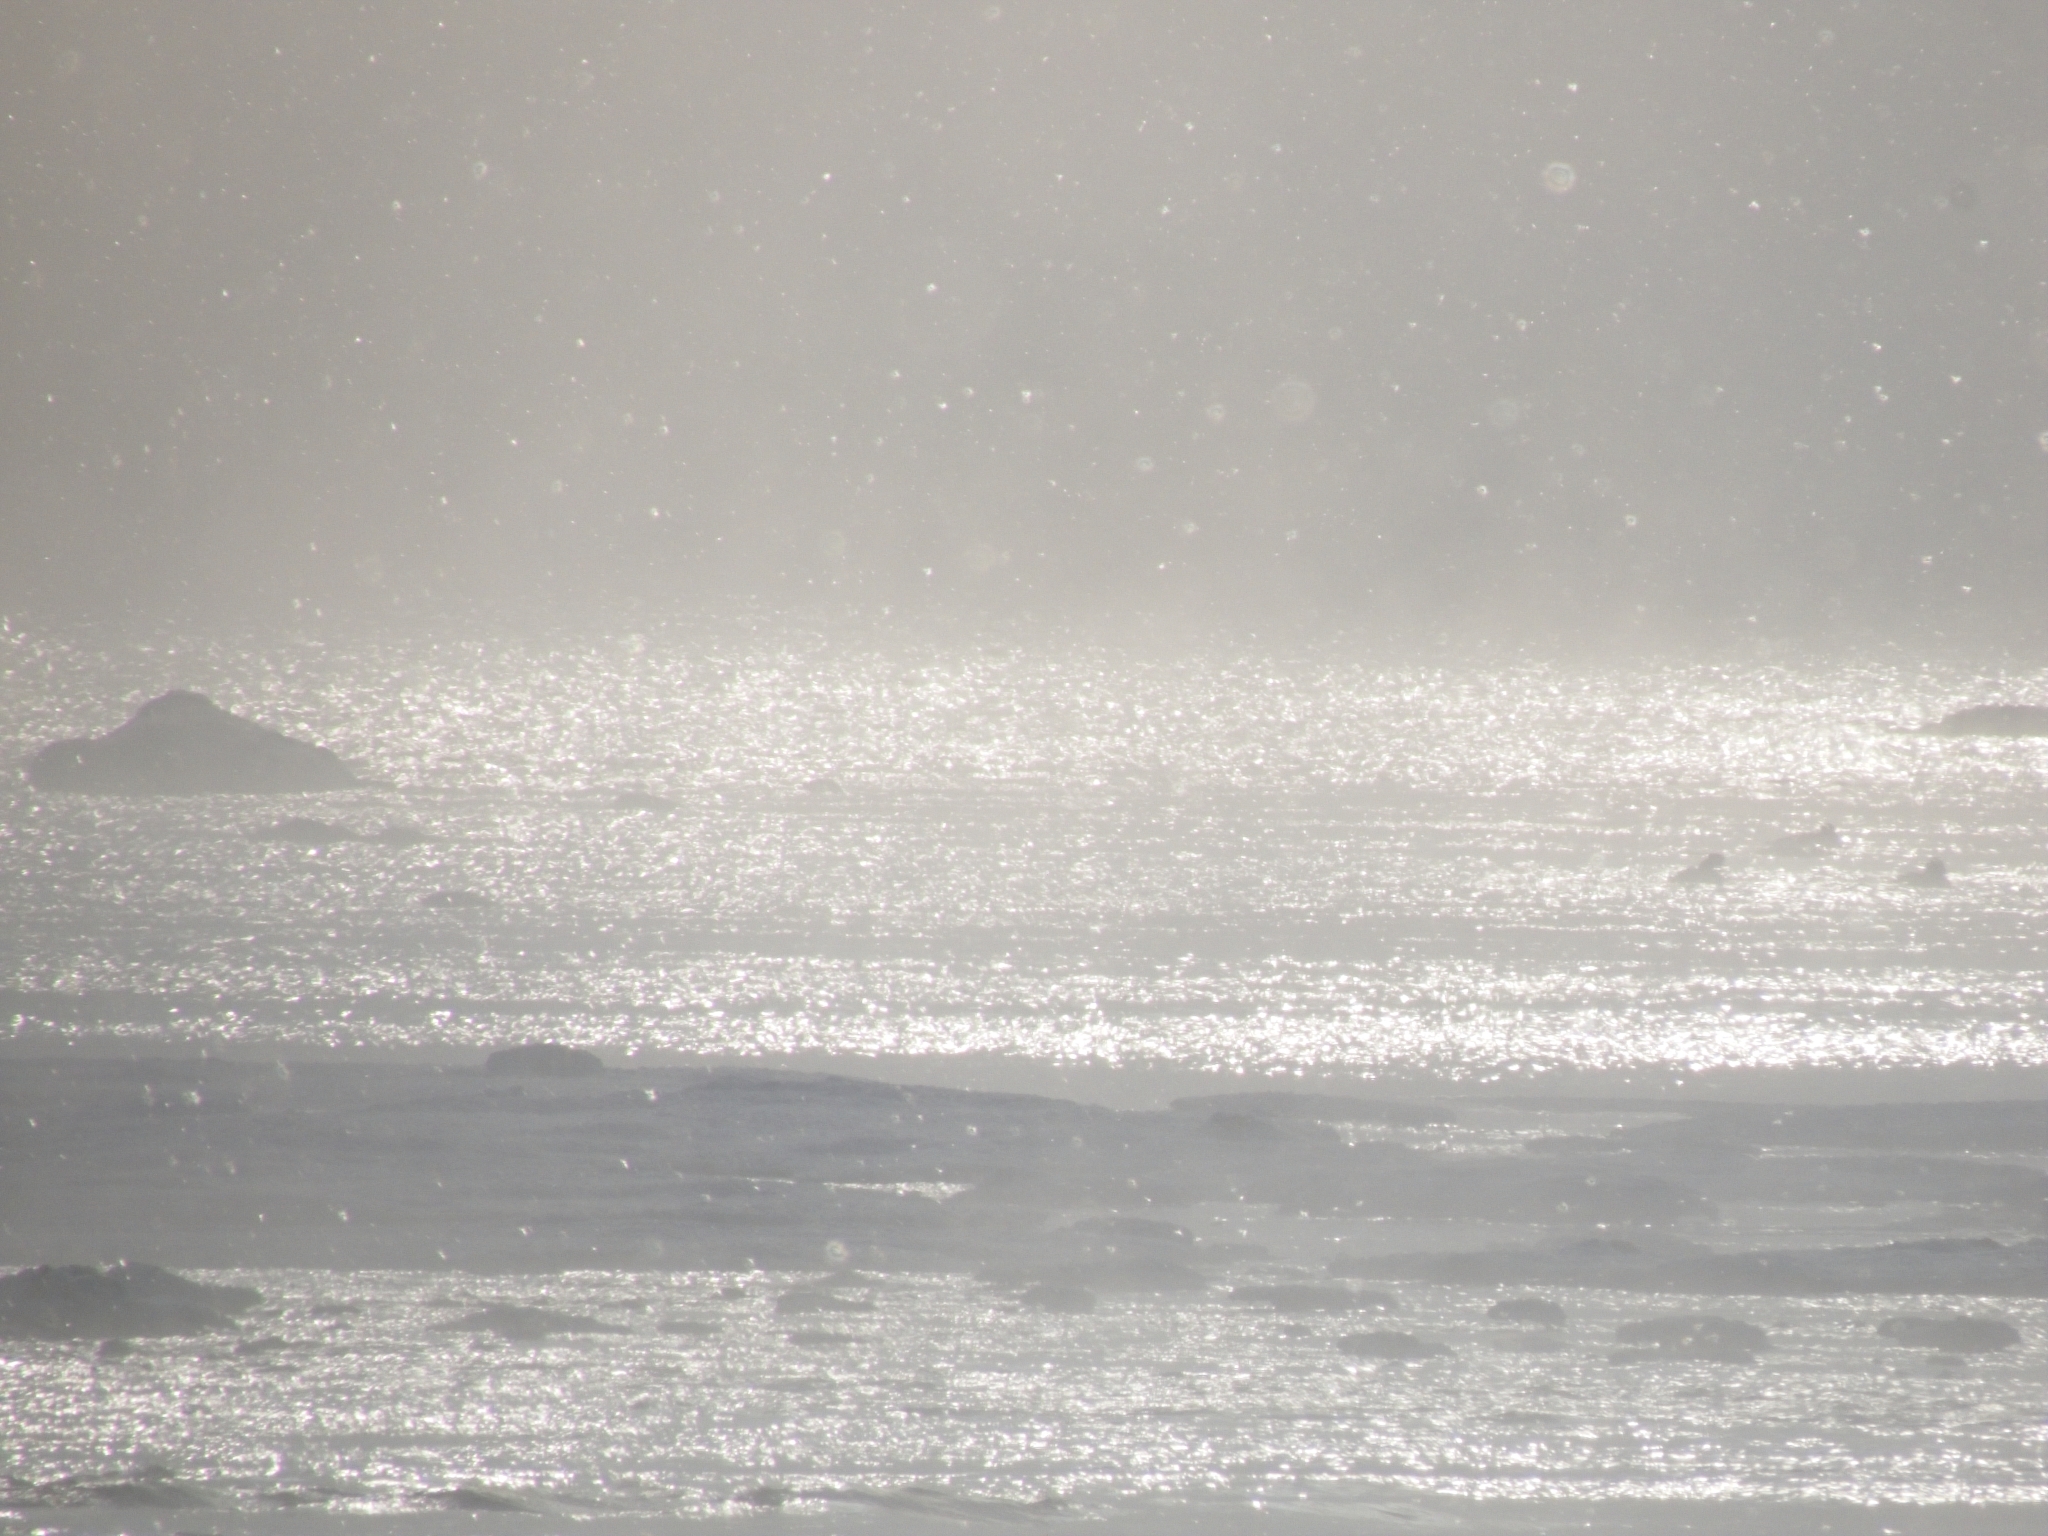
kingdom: Animalia
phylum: Chordata
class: Aves
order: Anseriformes
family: Anatidae
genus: Mergus
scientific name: Mergus merganser
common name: Common merganser
